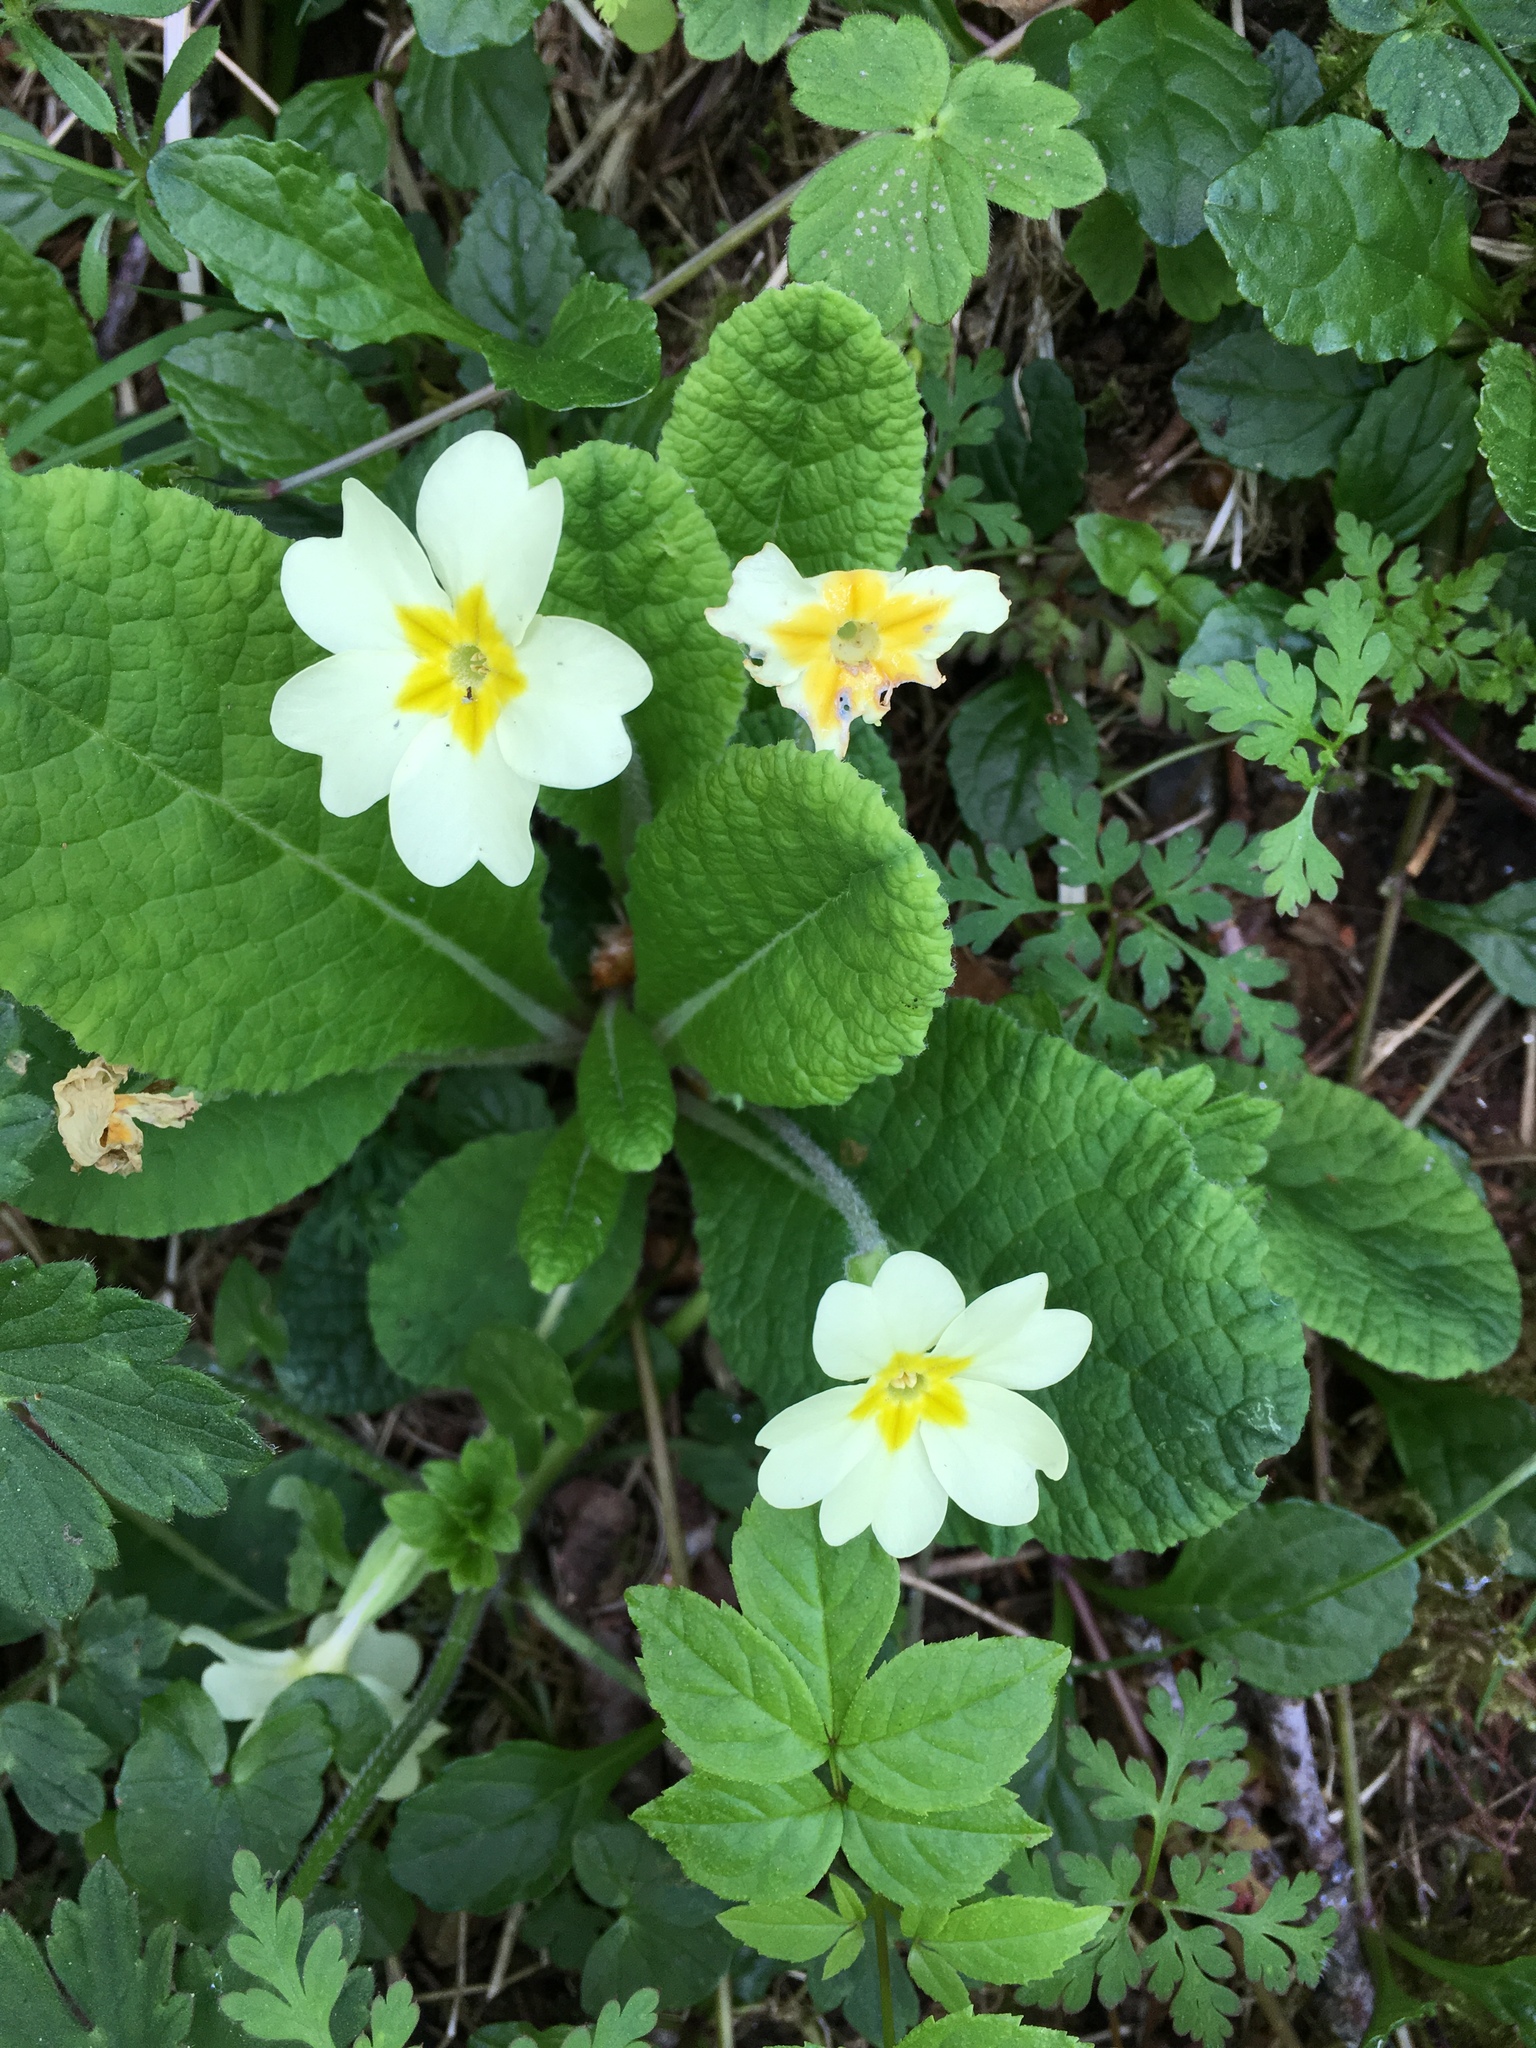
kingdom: Plantae
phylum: Tracheophyta
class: Magnoliopsida
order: Ericales
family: Primulaceae
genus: Primula
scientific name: Primula vulgaris
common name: Primrose
